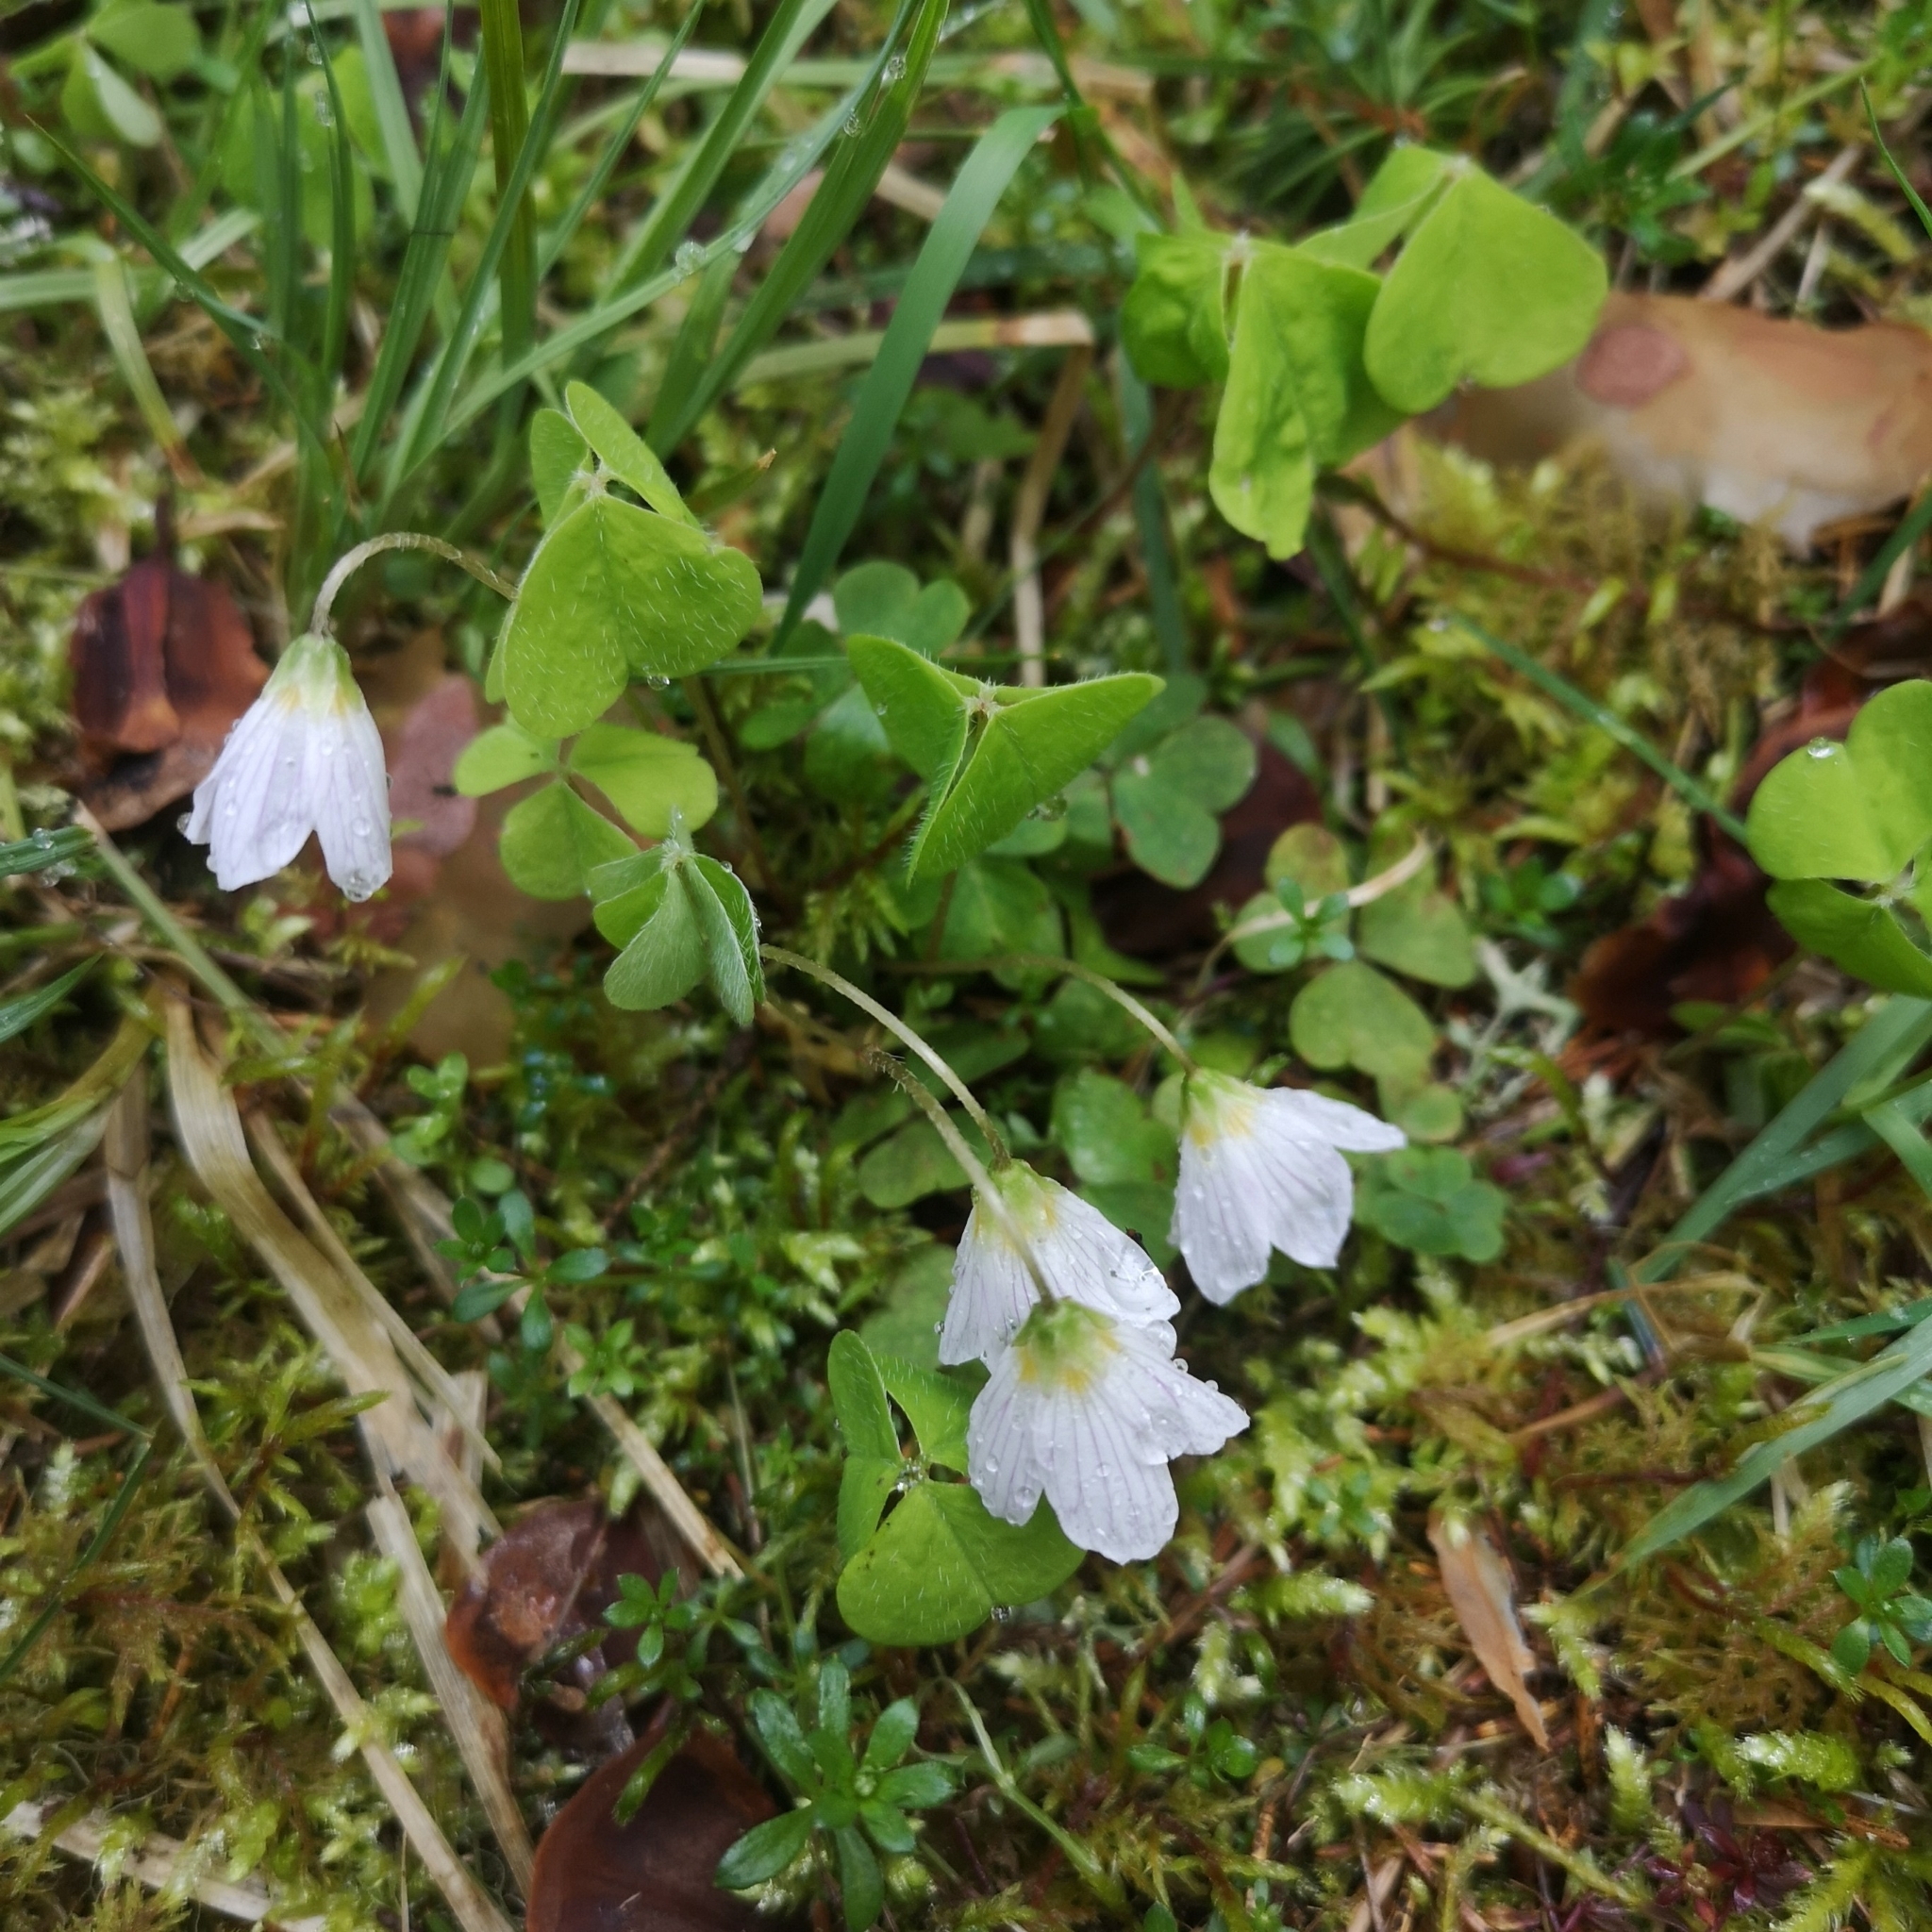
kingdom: Plantae
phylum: Tracheophyta
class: Magnoliopsida
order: Oxalidales
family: Oxalidaceae
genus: Oxalis
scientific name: Oxalis acetosella
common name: Wood-sorrel
